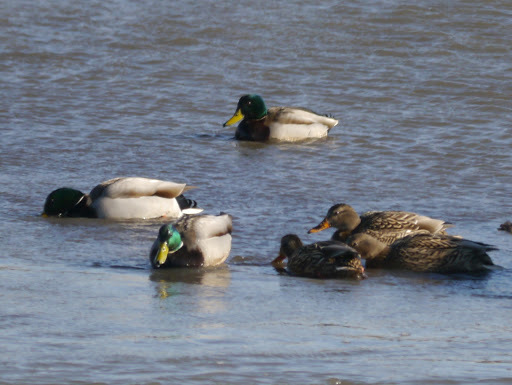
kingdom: Animalia
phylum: Chordata
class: Aves
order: Anseriformes
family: Anatidae
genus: Anas
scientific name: Anas platyrhynchos
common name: Mallard
